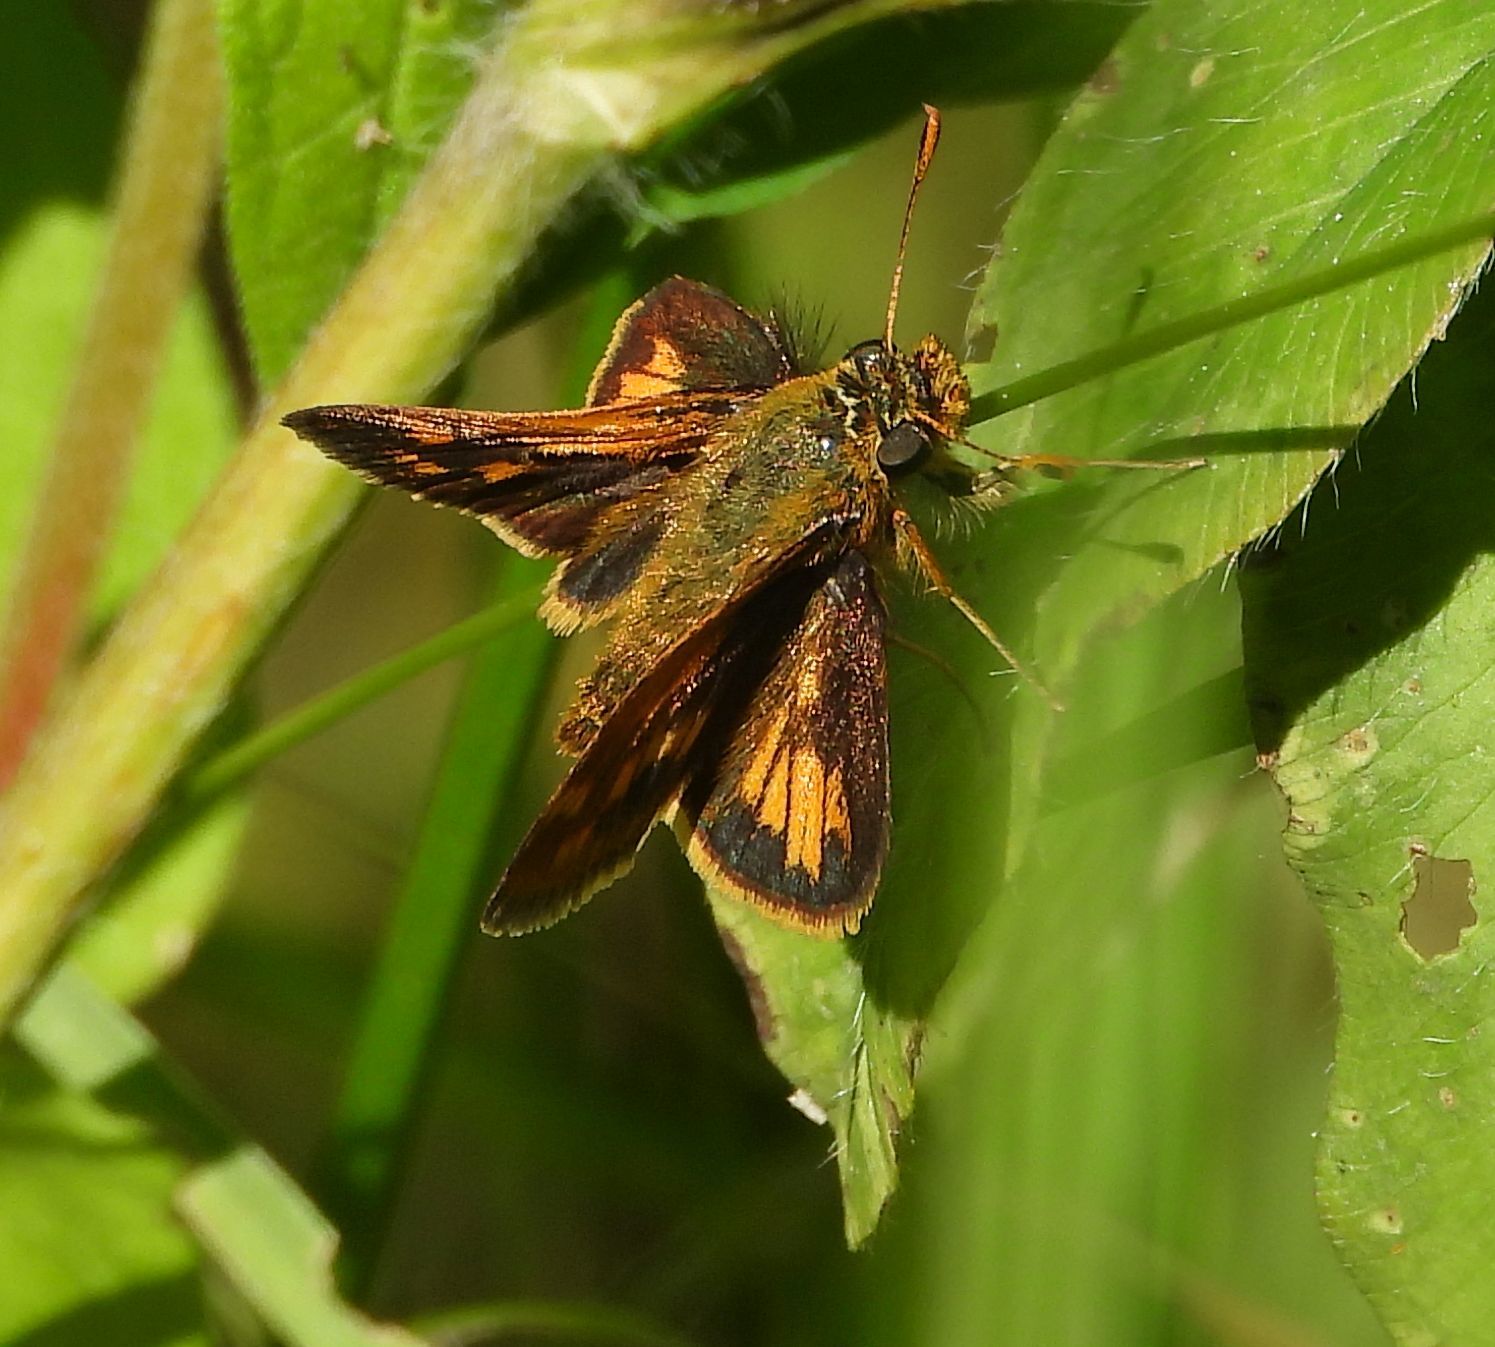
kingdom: Animalia
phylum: Arthropoda
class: Insecta
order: Lepidoptera
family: Hesperiidae
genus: Polites
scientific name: Polites coras
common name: Peck's skipper
